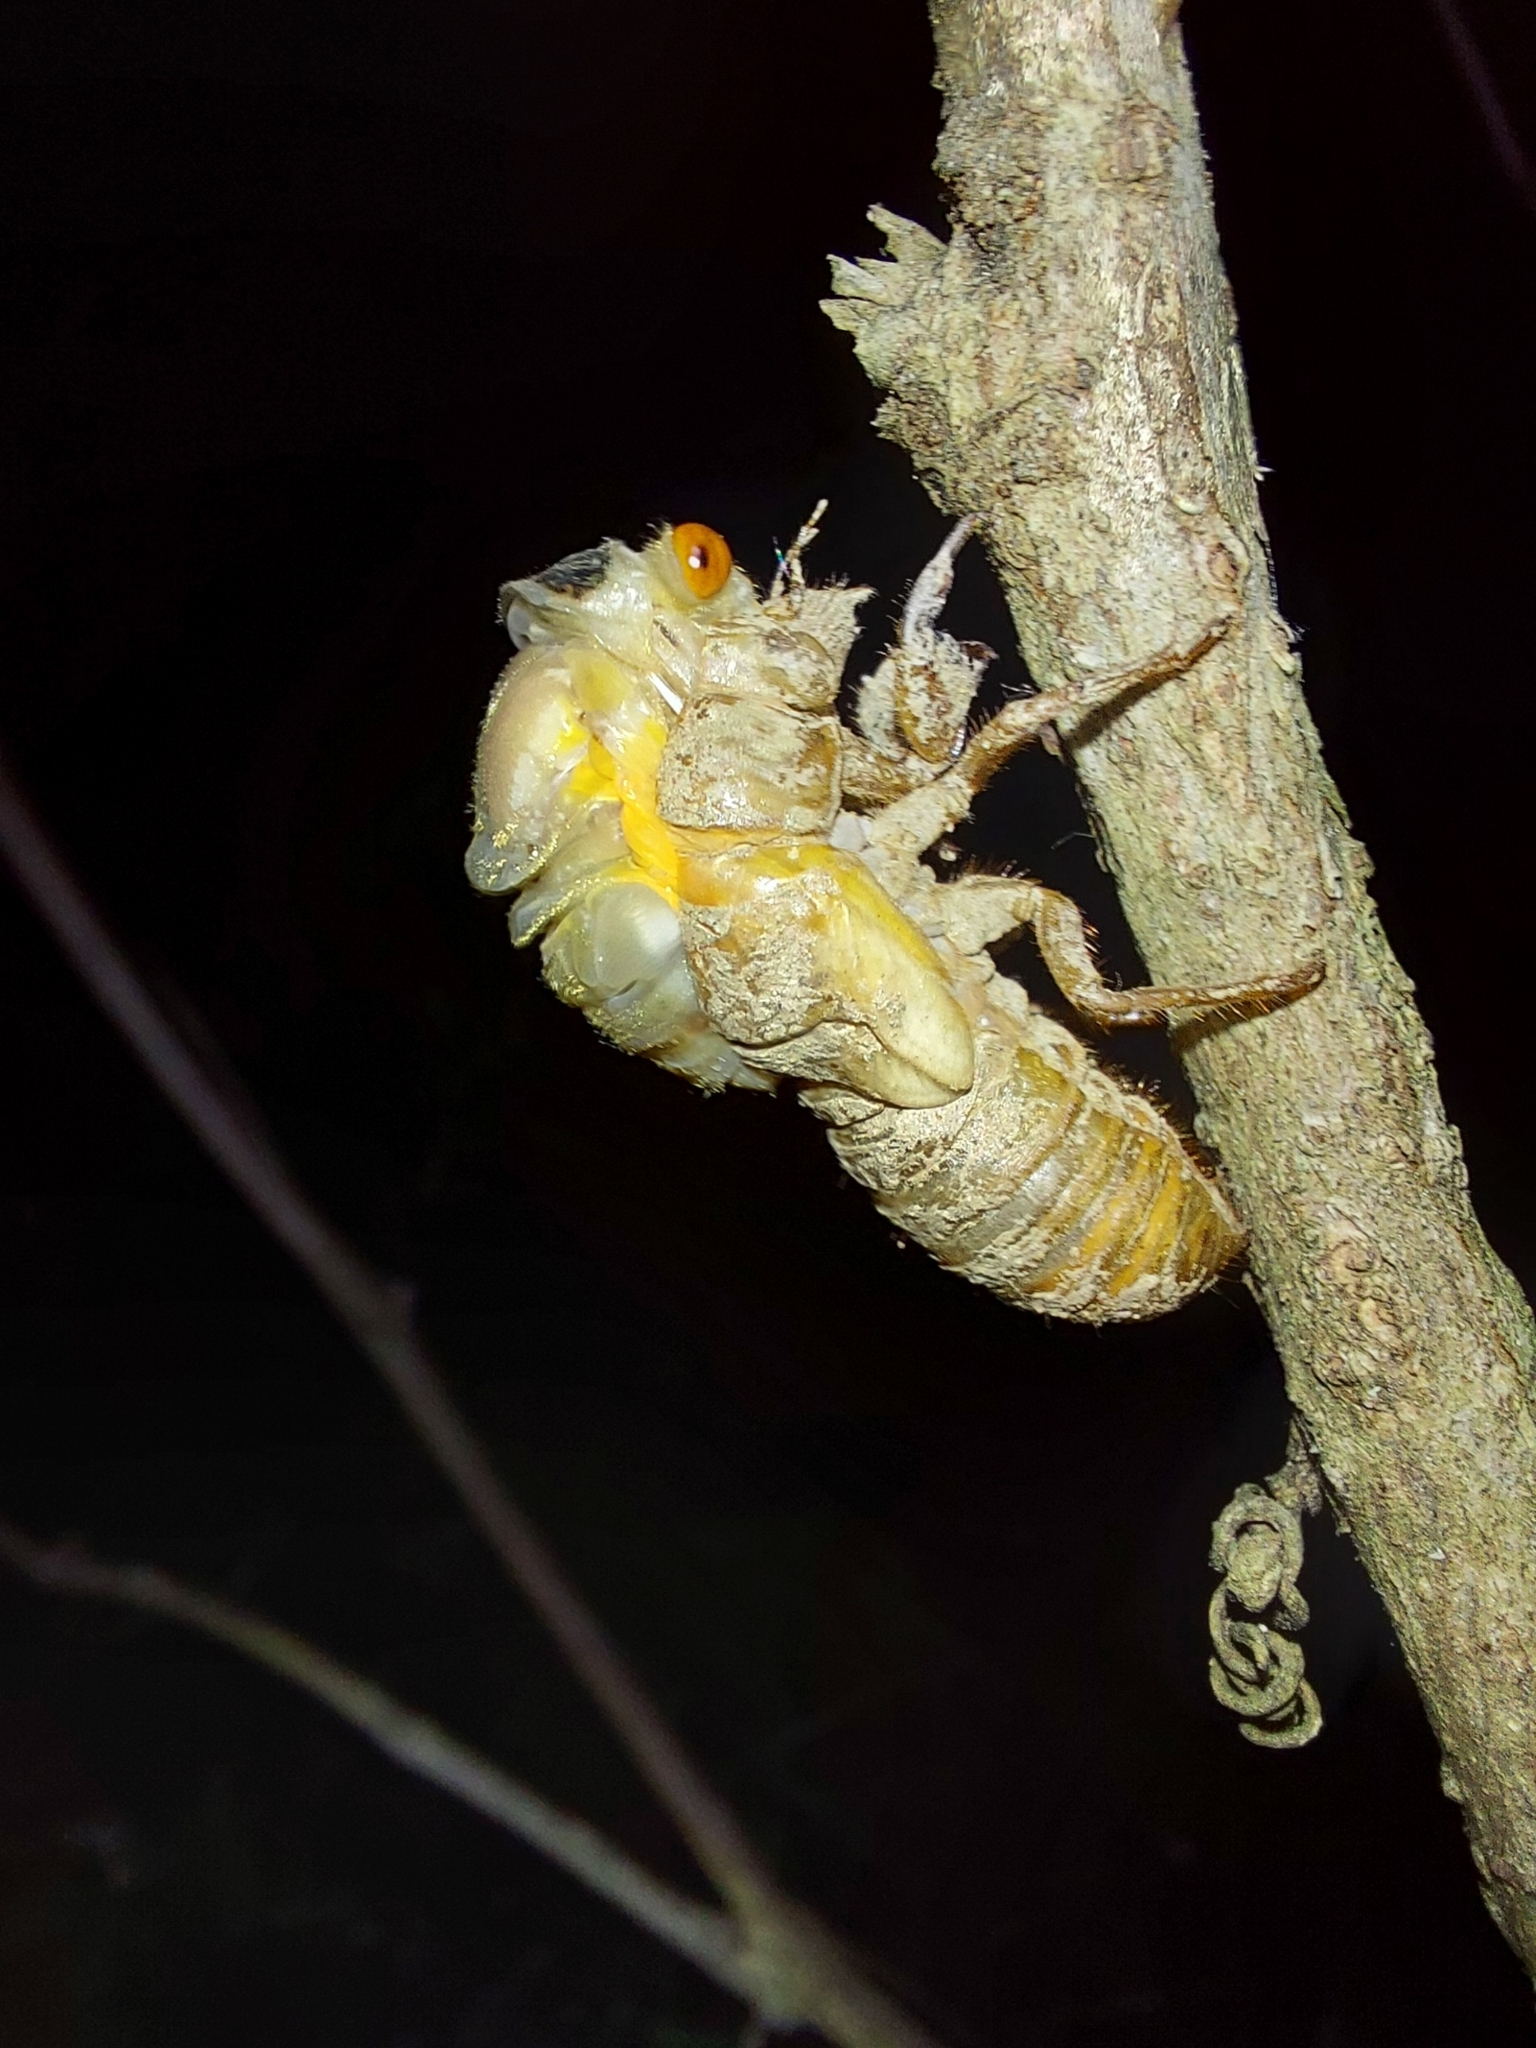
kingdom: Animalia
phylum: Arthropoda
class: Insecta
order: Hemiptera
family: Cicadidae
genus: Magicicada
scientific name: Magicicada
